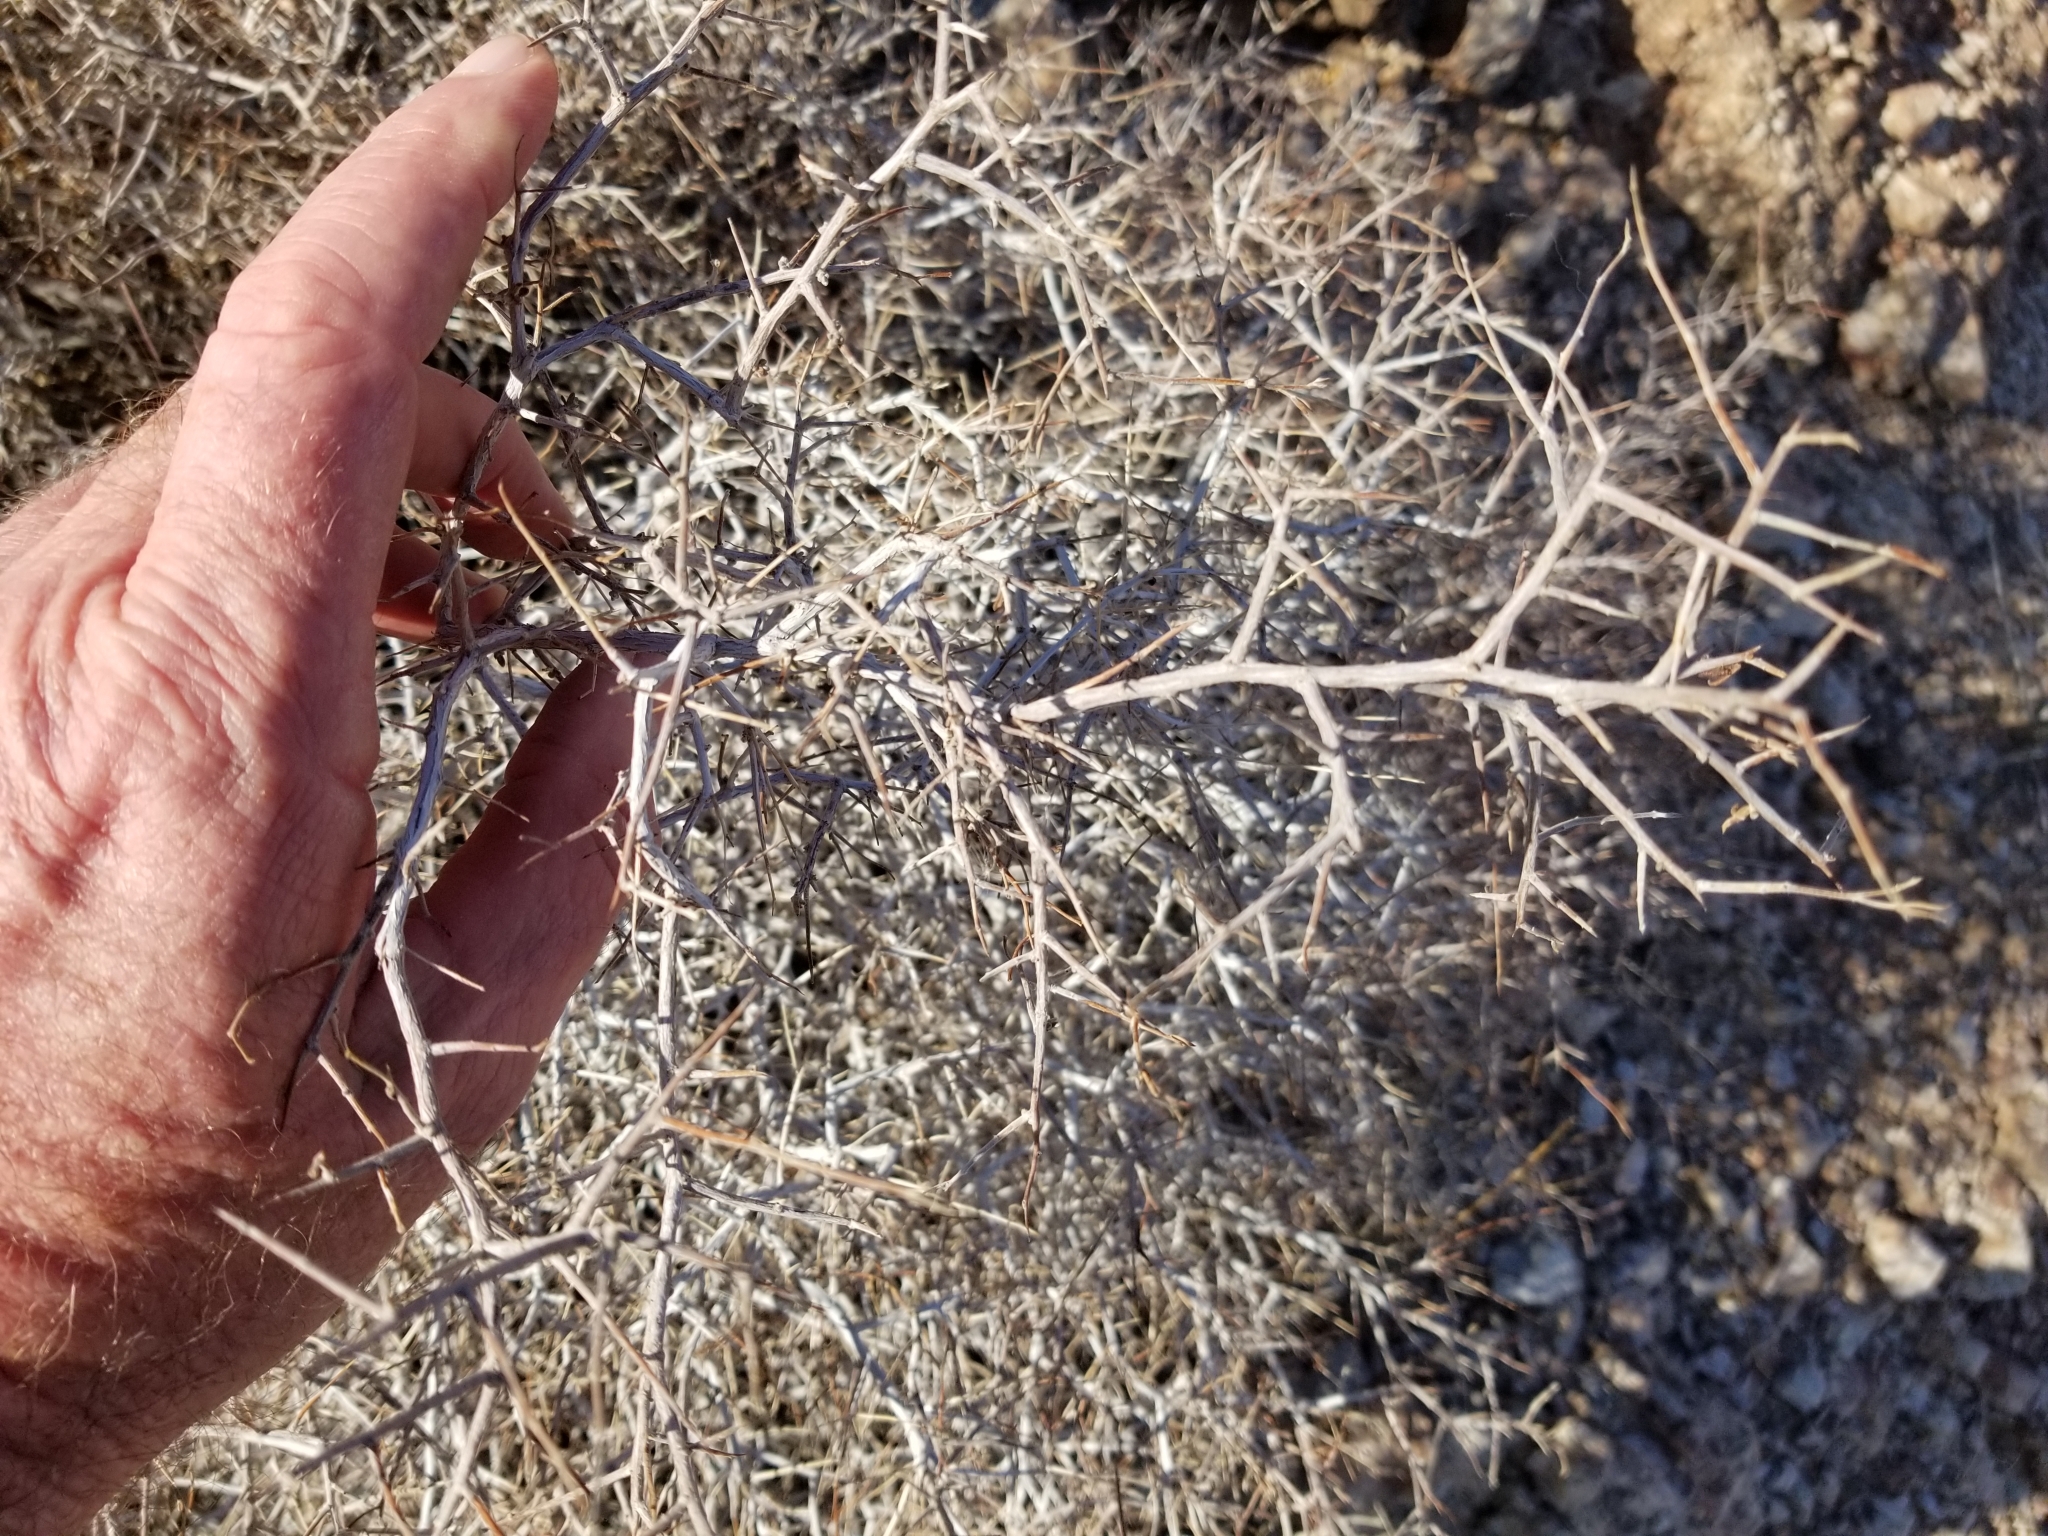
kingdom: Plantae
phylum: Tracheophyta
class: Magnoliopsida
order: Zygophyllales
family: Krameriaceae
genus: Krameria
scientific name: Krameria erecta
